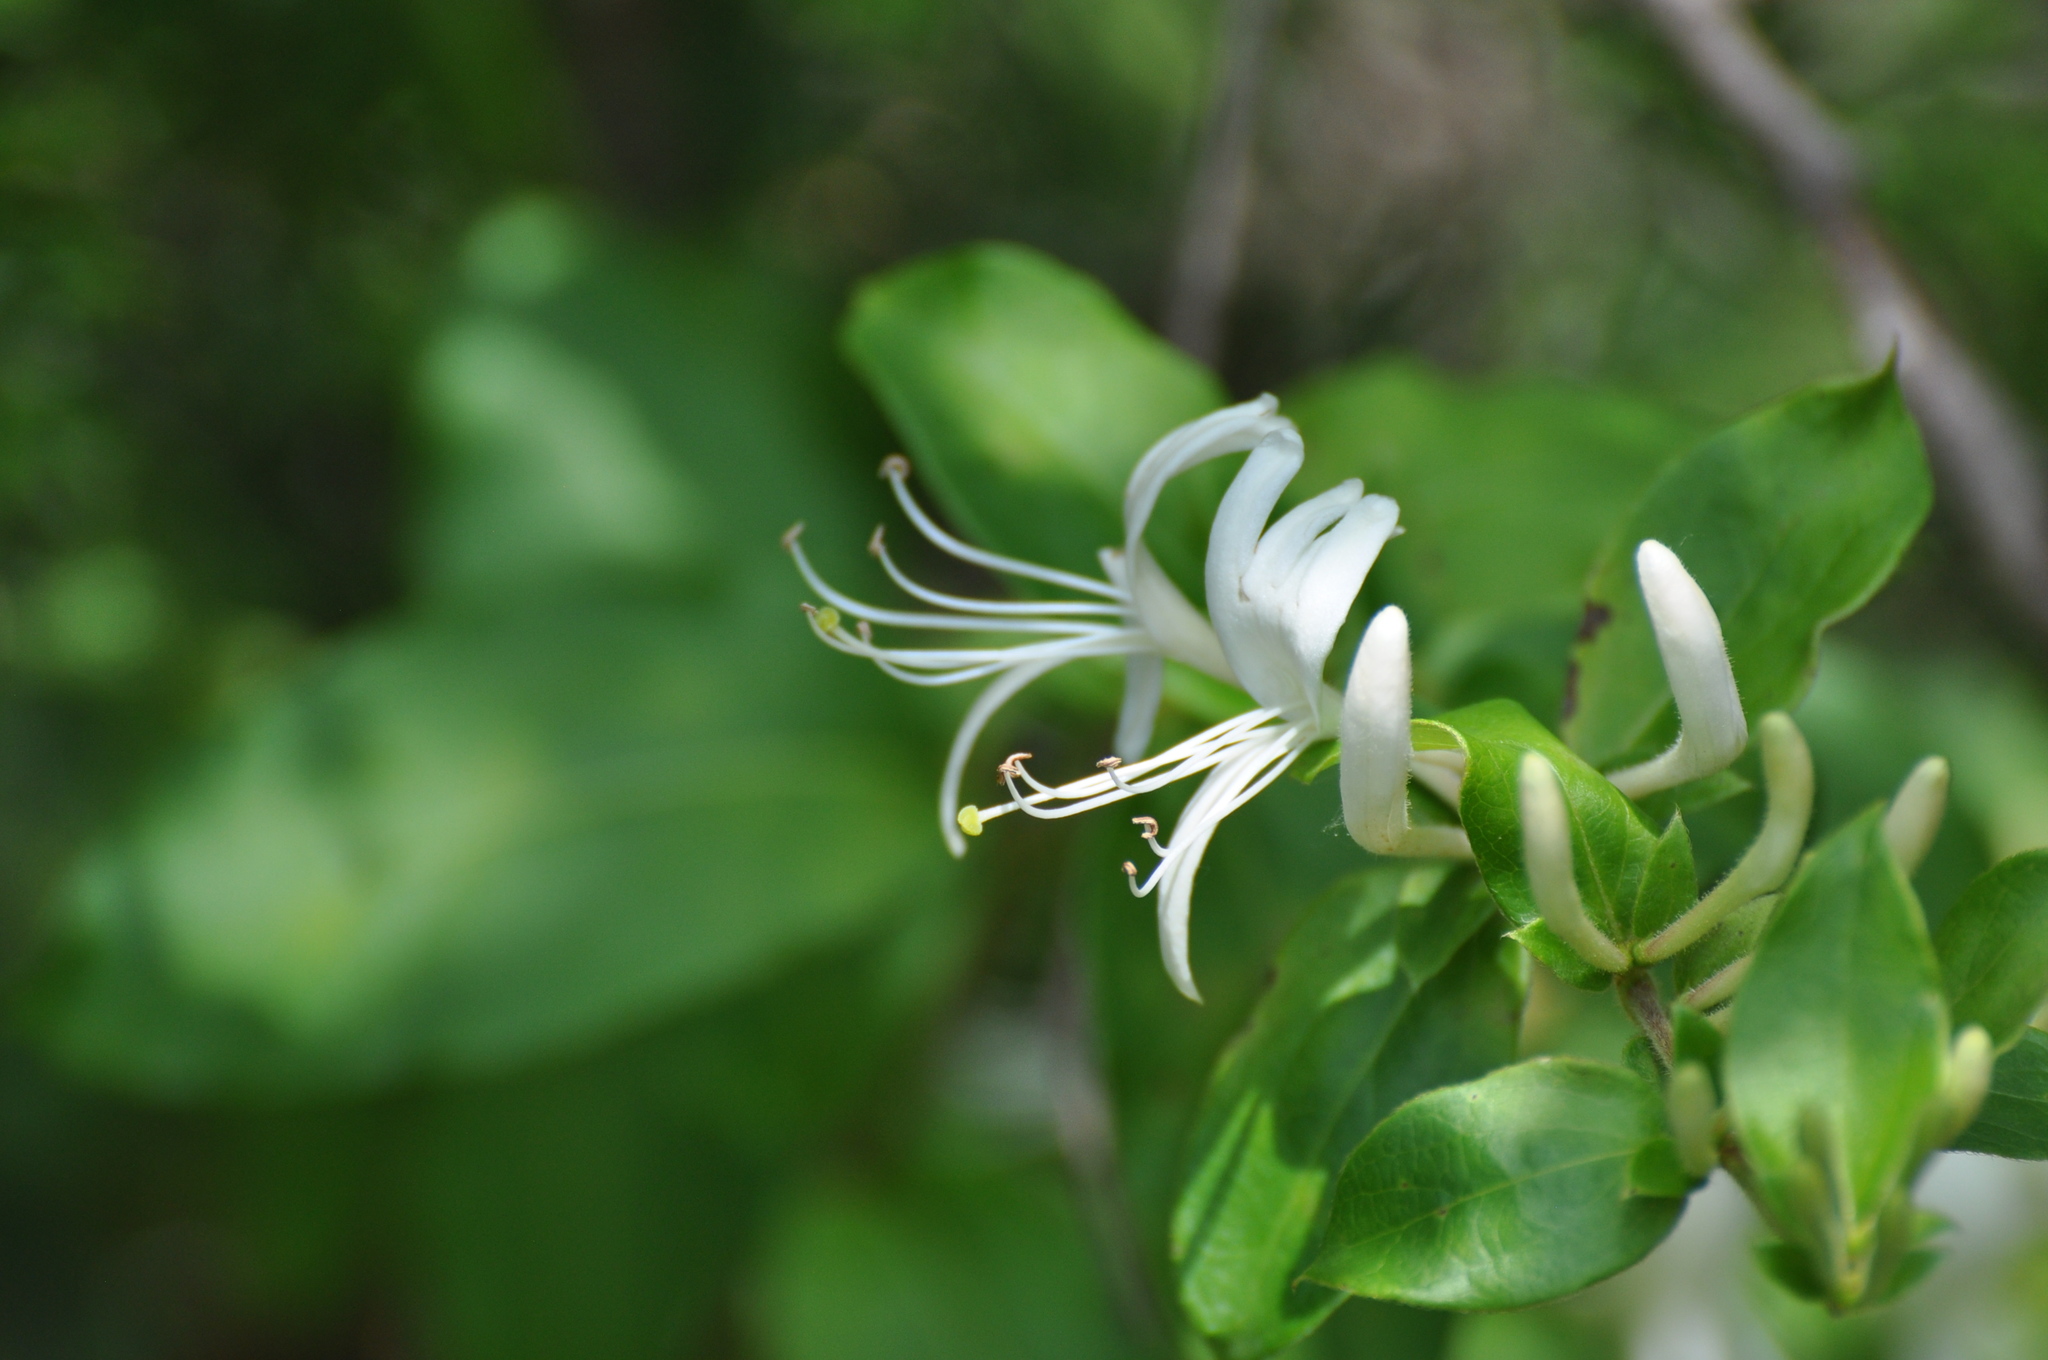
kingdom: Plantae
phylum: Tracheophyta
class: Magnoliopsida
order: Dipsacales
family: Caprifoliaceae
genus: Lonicera
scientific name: Lonicera japonica
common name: Japanese honeysuckle
